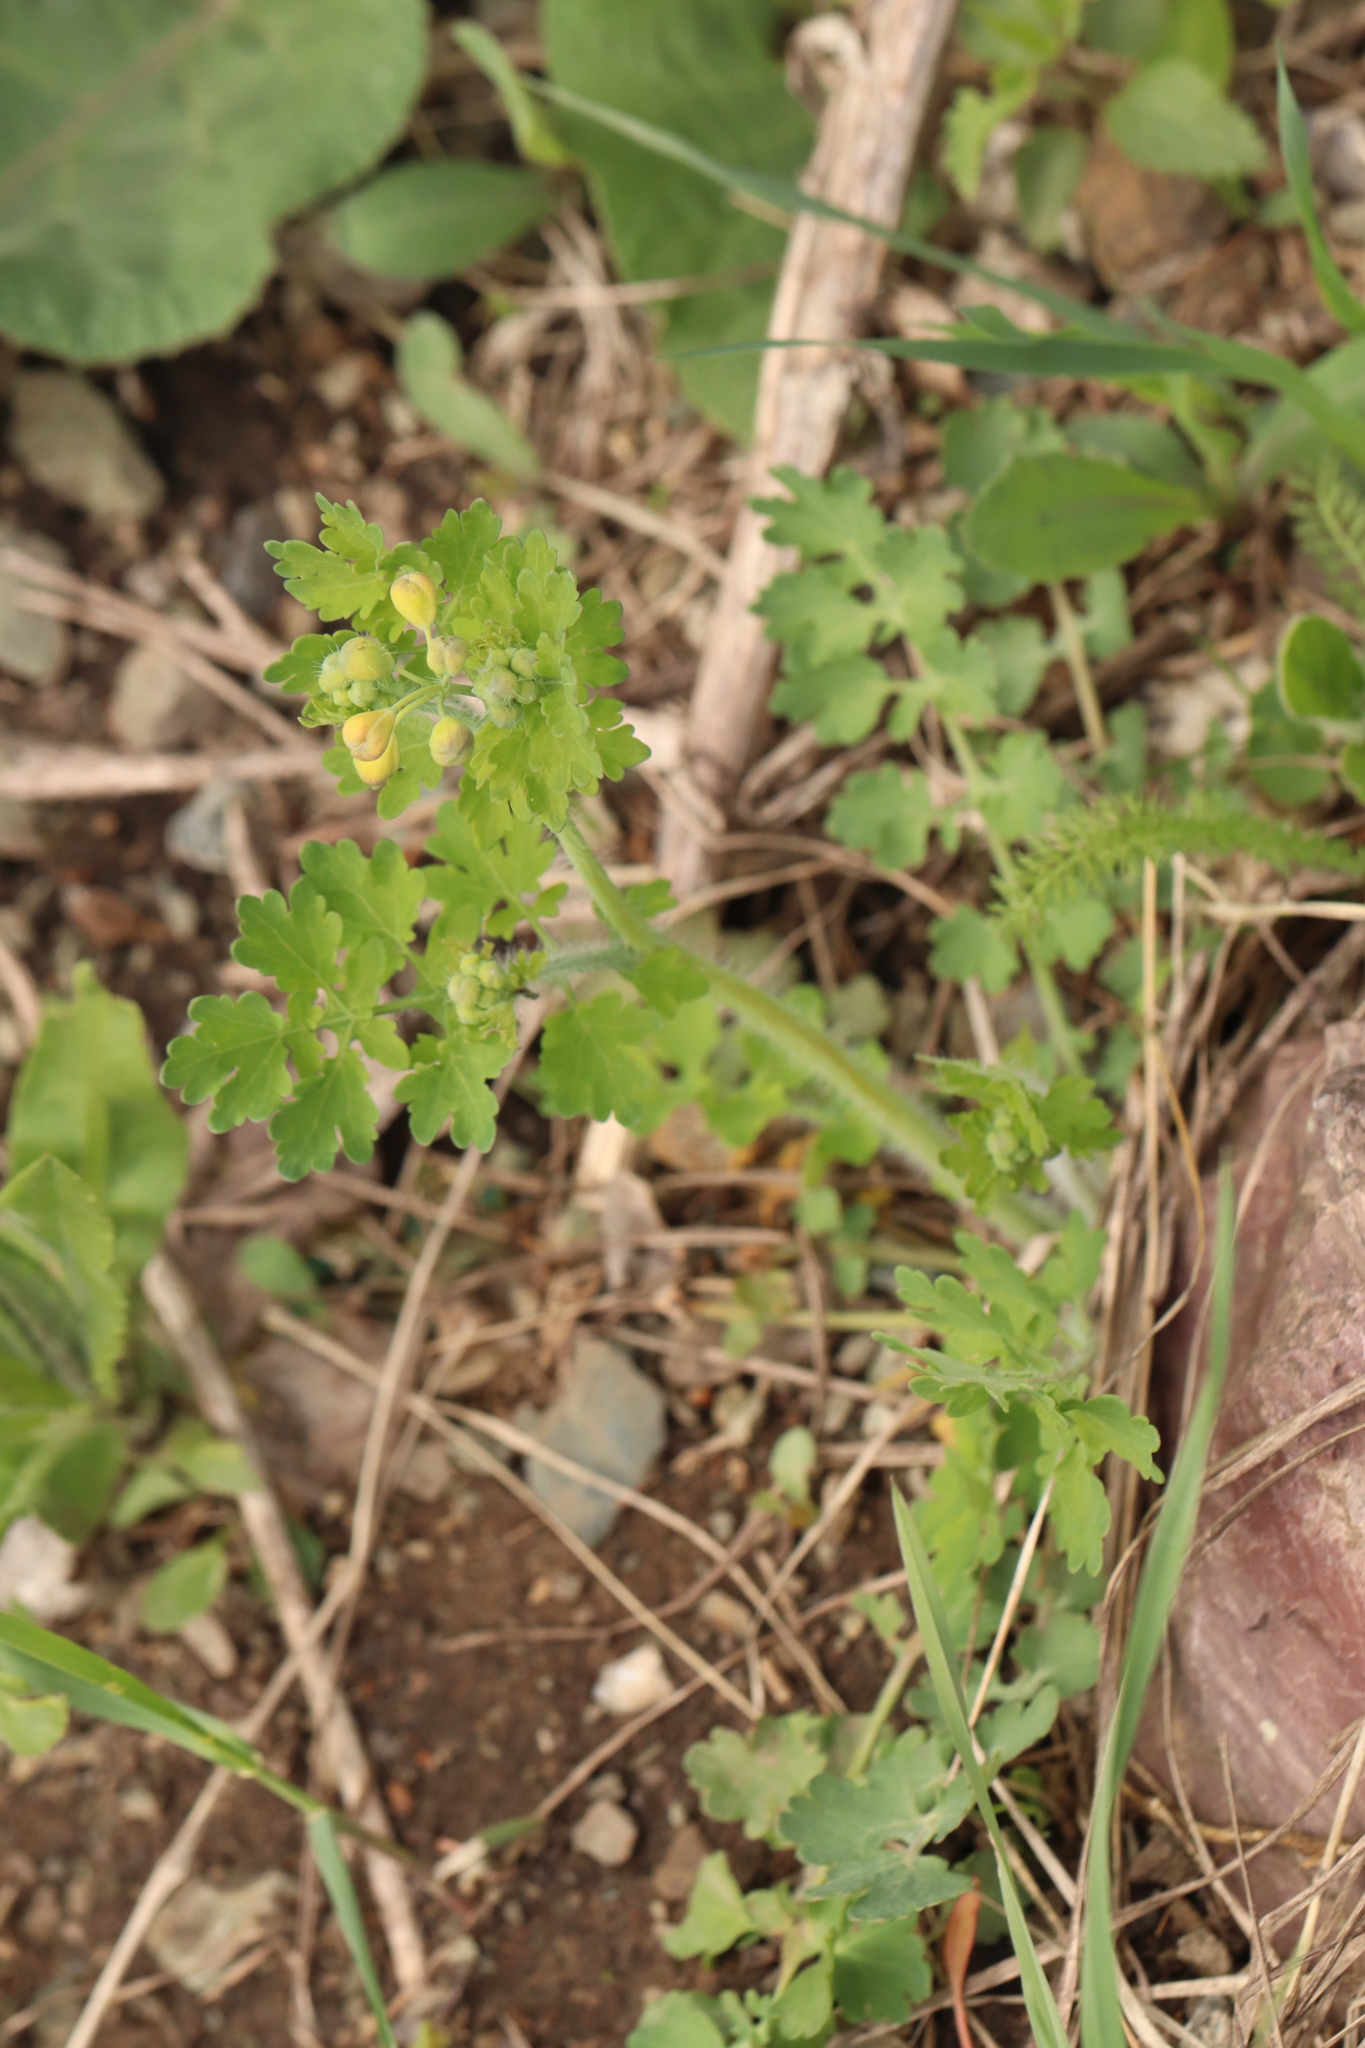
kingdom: Plantae
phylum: Tracheophyta
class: Magnoliopsida
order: Ranunculales
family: Papaveraceae
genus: Chelidonium
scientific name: Chelidonium majus
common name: Greater celandine
